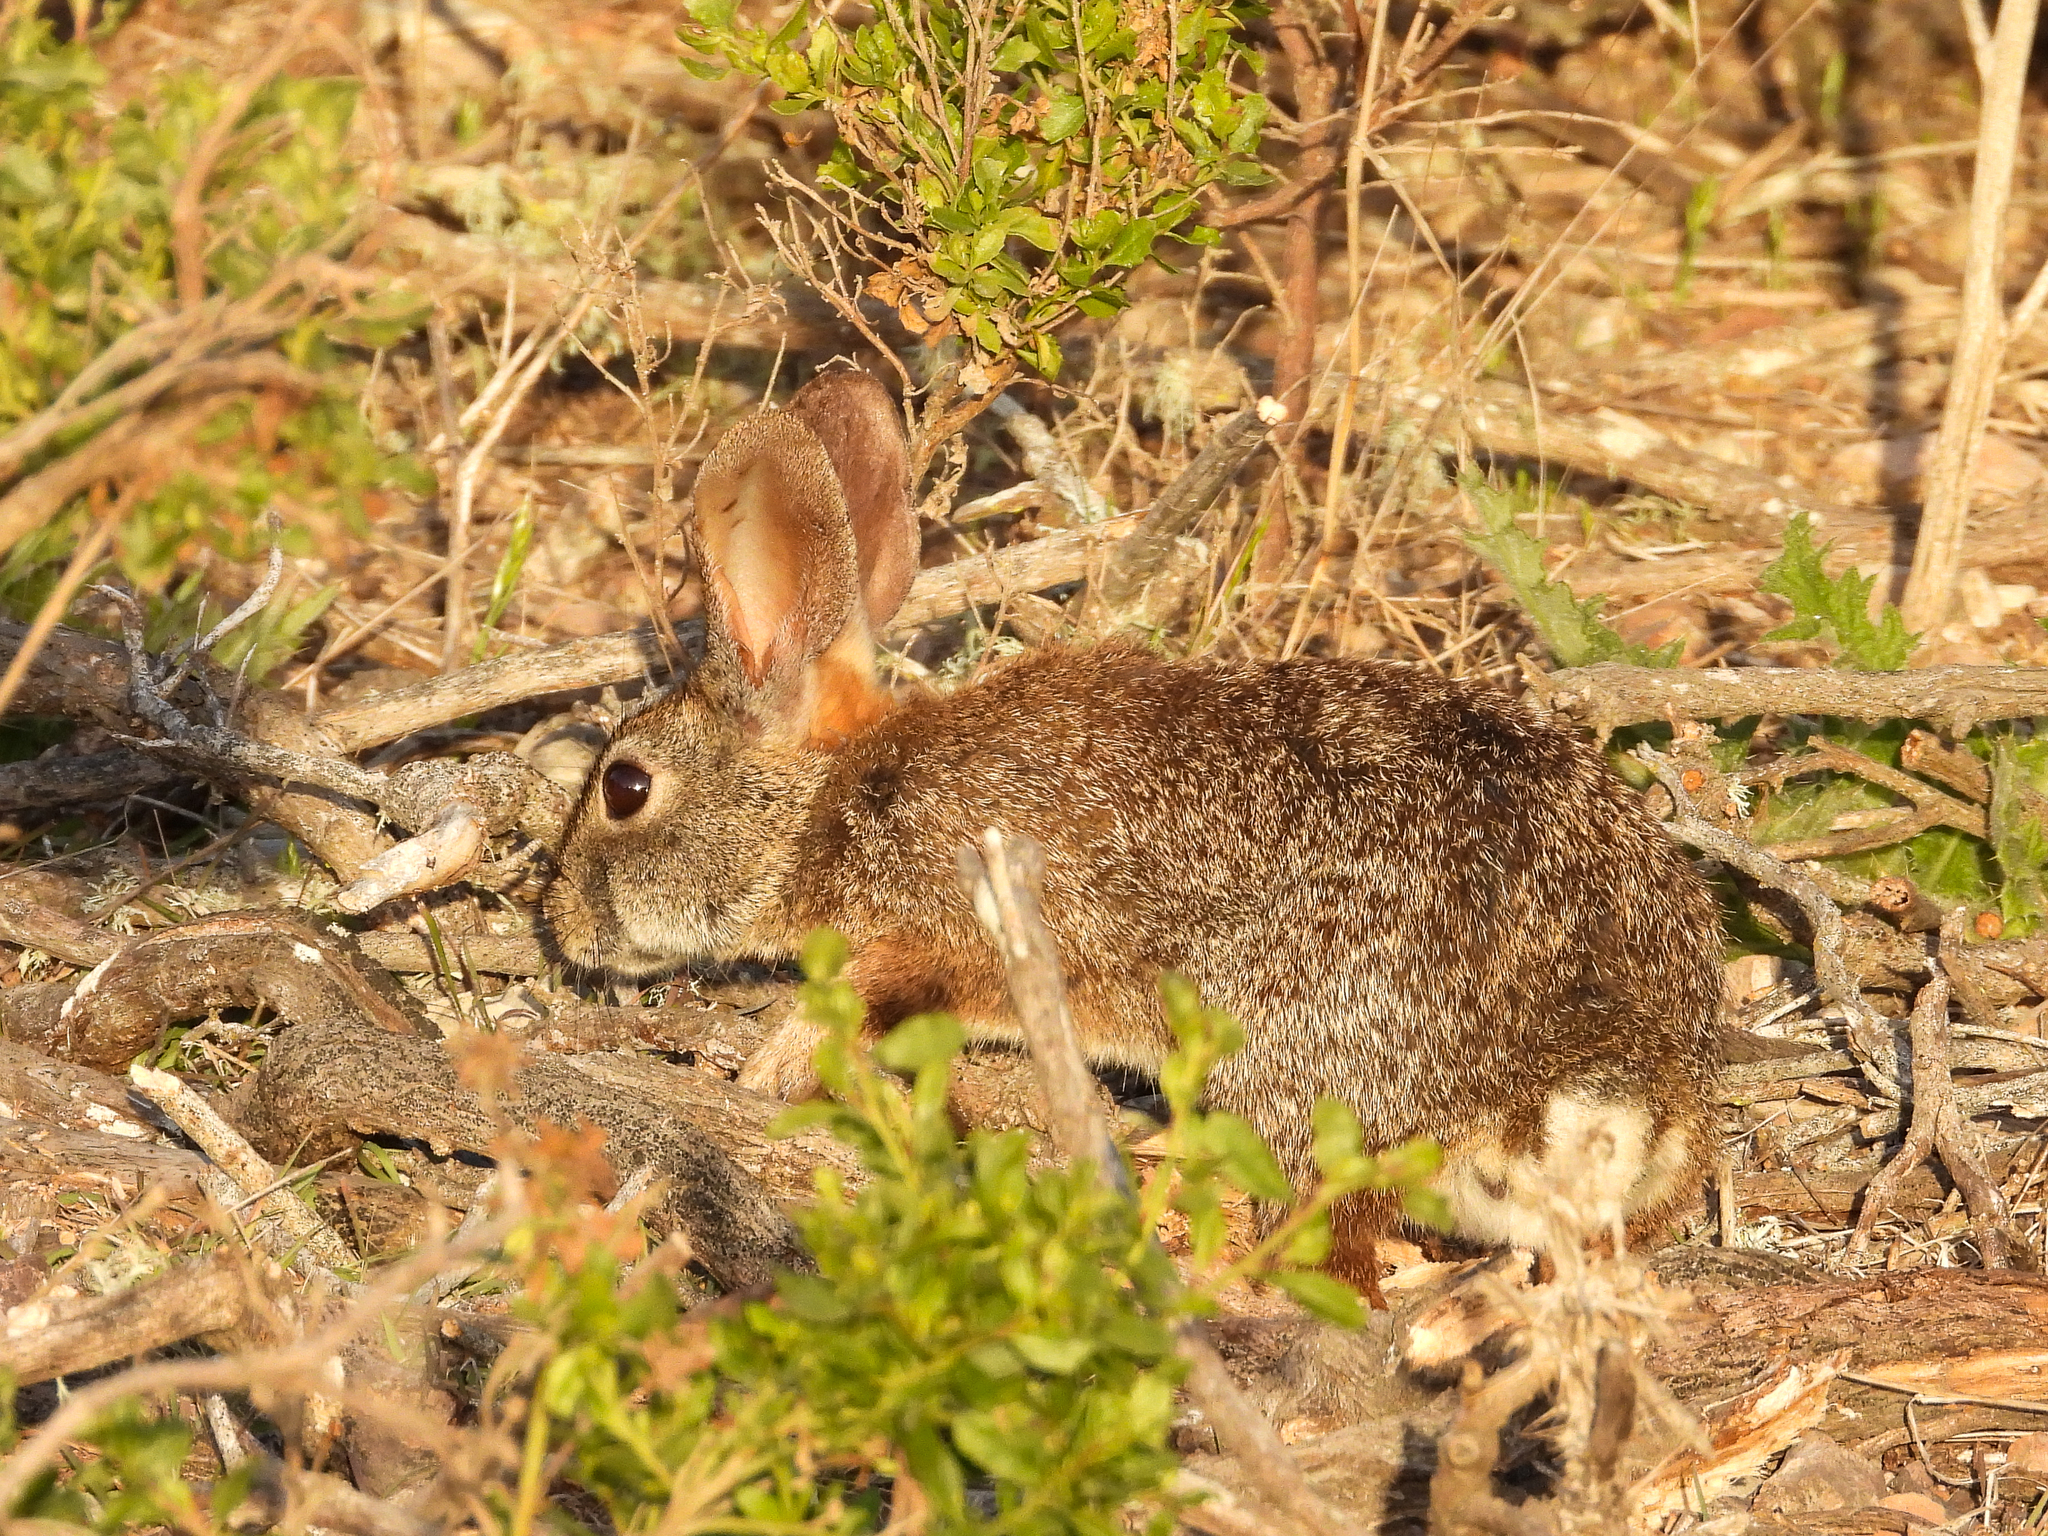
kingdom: Animalia
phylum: Chordata
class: Mammalia
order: Lagomorpha
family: Leporidae
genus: Sylvilagus
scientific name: Sylvilagus bachmani
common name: Brush rabbit
